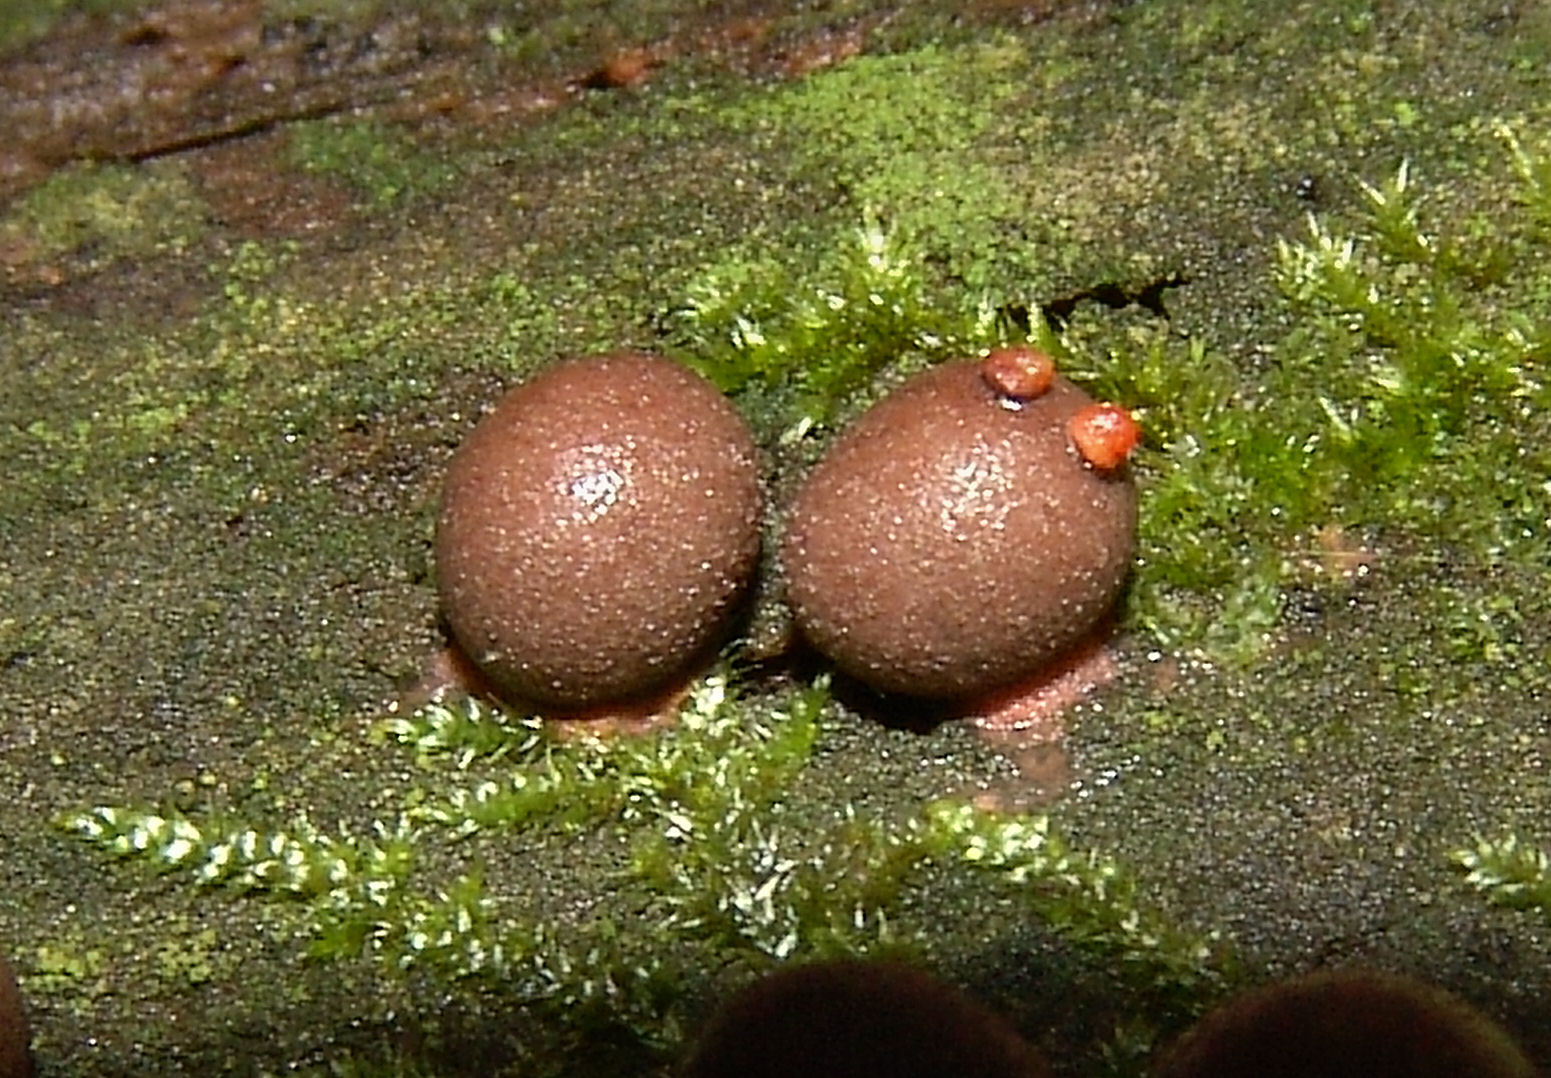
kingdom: Protozoa
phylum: Mycetozoa
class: Myxomycetes
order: Cribrariales
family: Tubiferaceae
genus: Lycogala
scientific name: Lycogala epidendrum
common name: Wolf's milk
